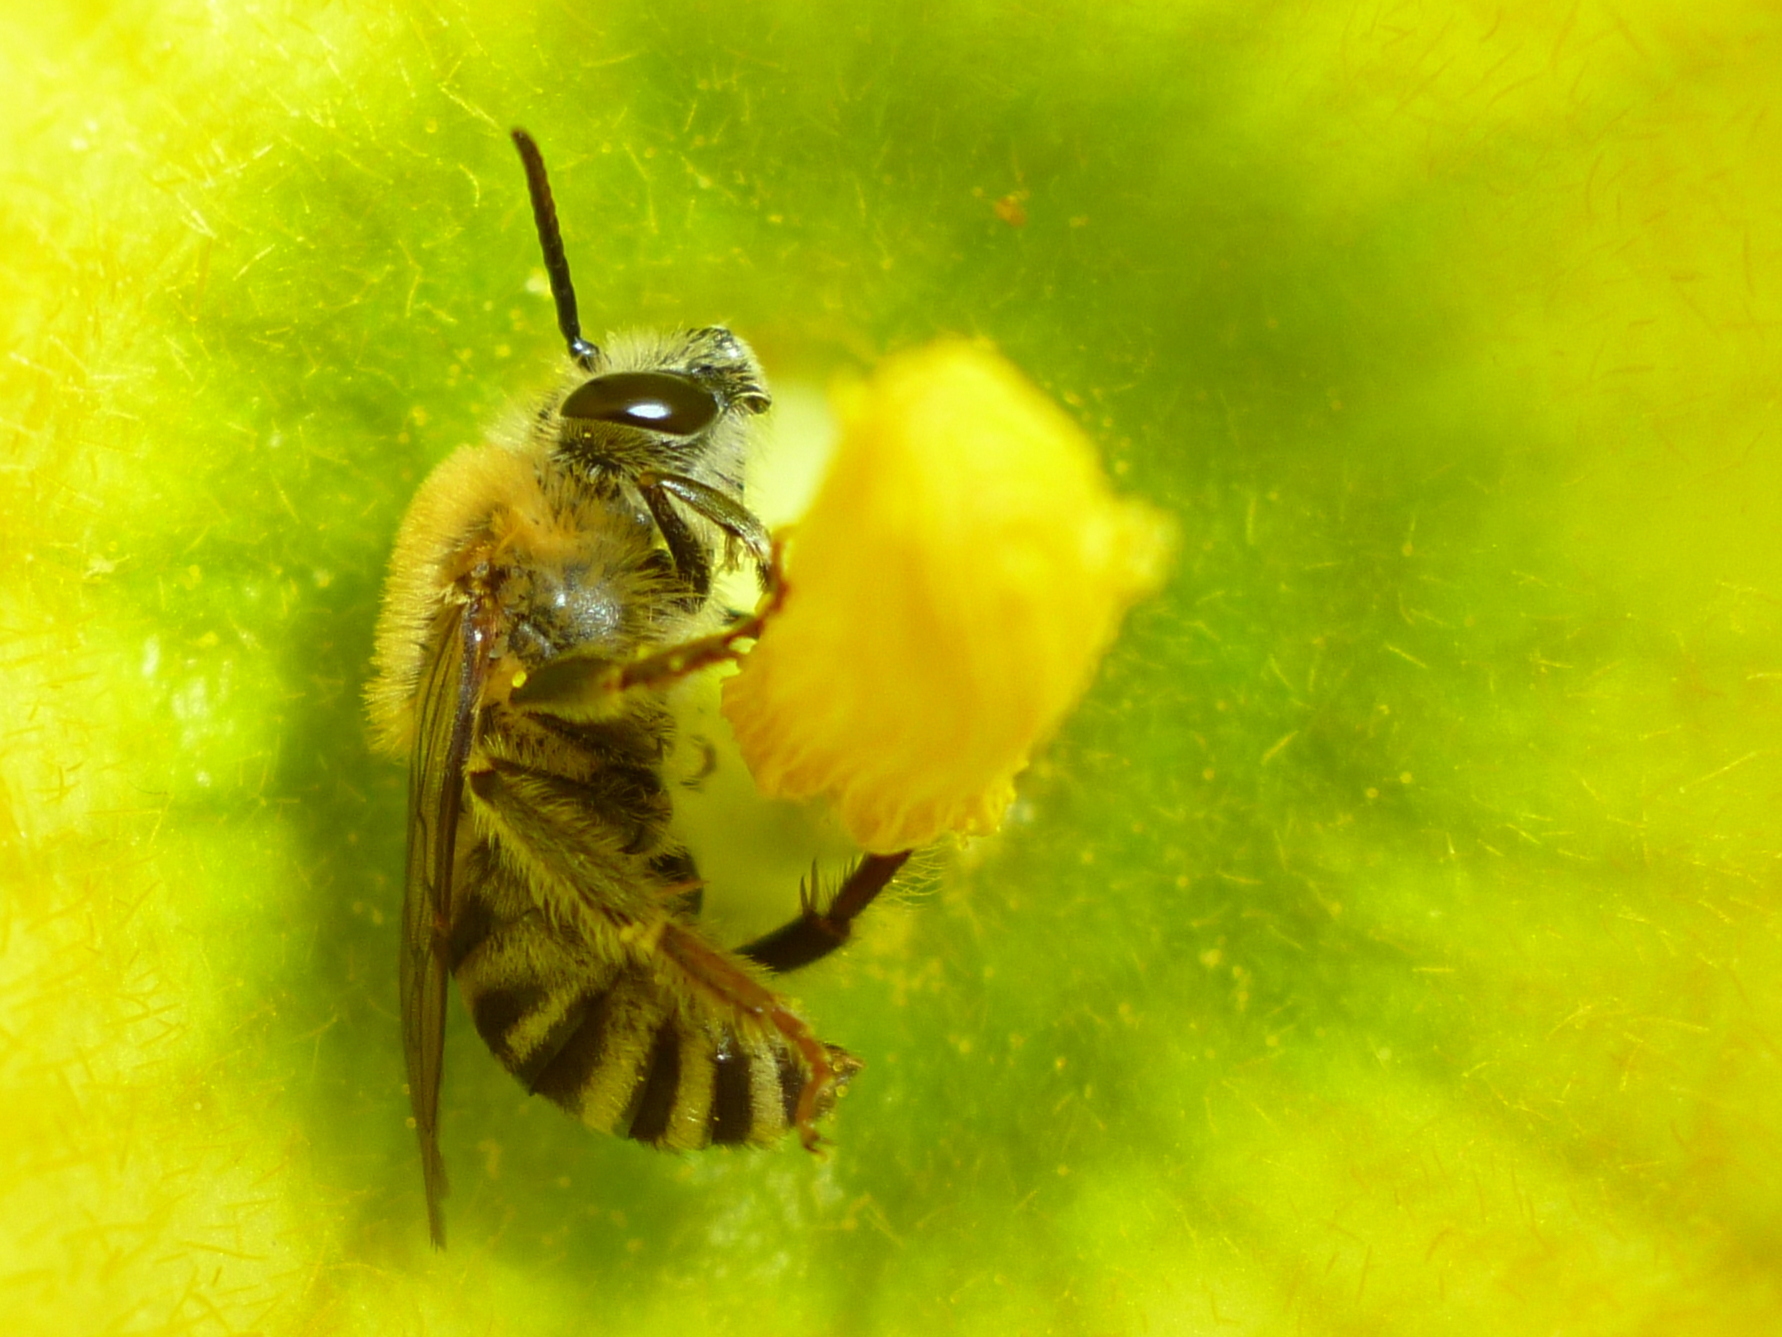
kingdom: Animalia
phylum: Arthropoda
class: Insecta
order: Hymenoptera
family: Apidae
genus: Peponapis
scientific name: Peponapis pruinosa
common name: Pruinose squash bee
